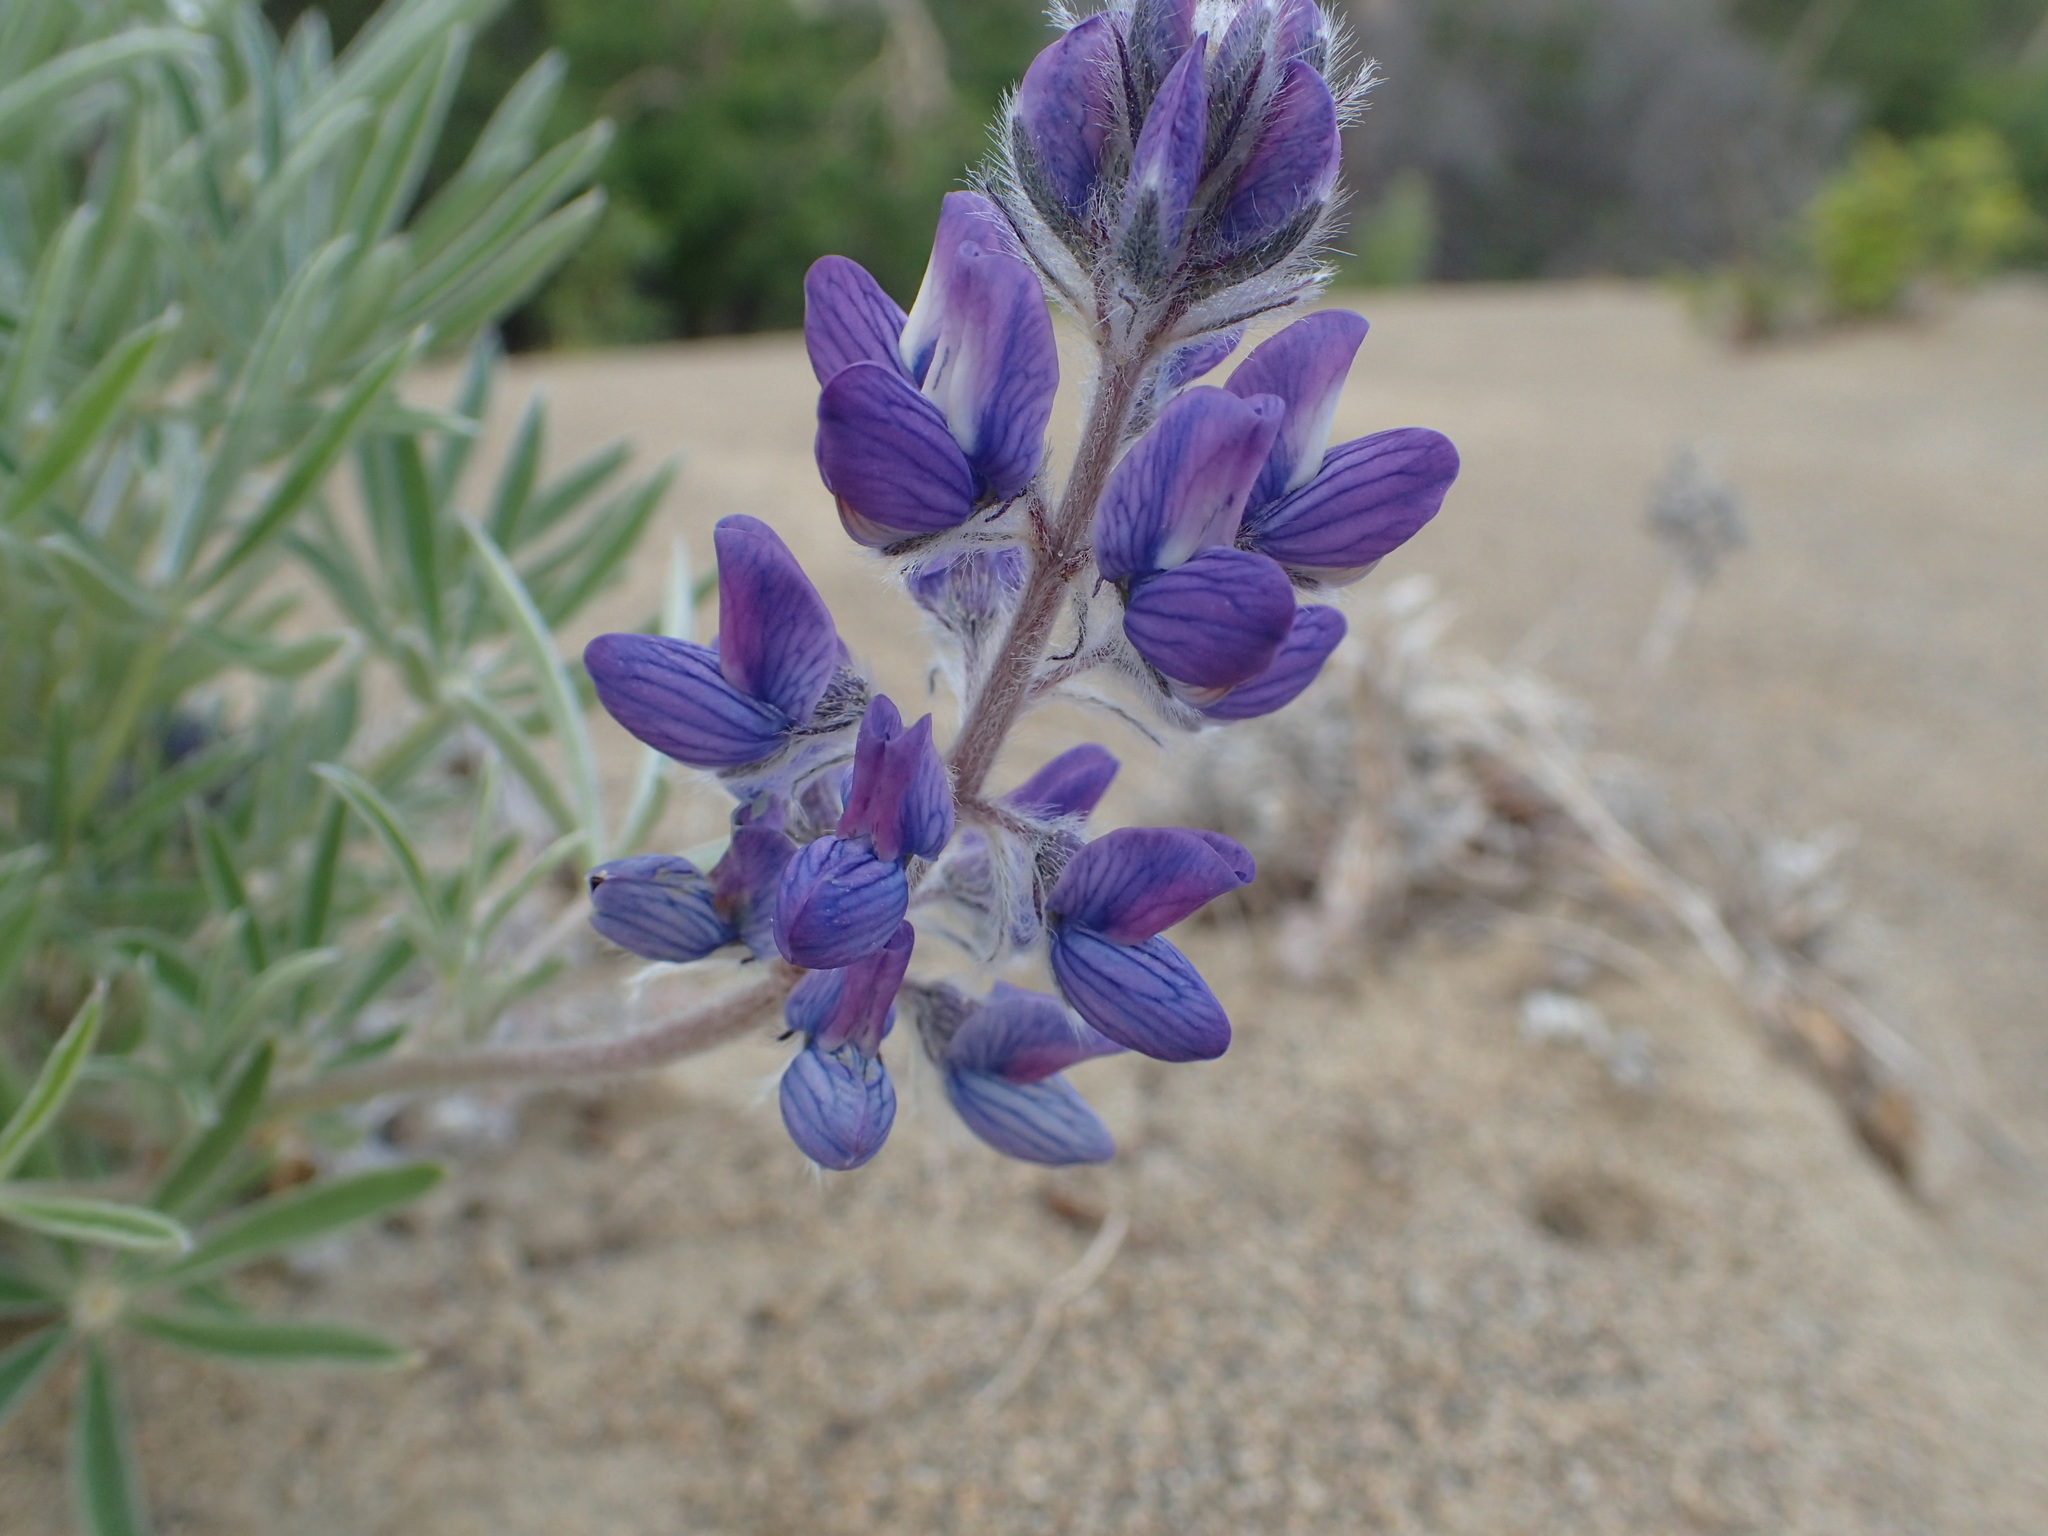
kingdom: Plantae
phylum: Tracheophyta
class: Magnoliopsida
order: Fabales
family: Fabaceae
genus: Lupinus
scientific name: Lupinus kuschei
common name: Kusche's lupine
